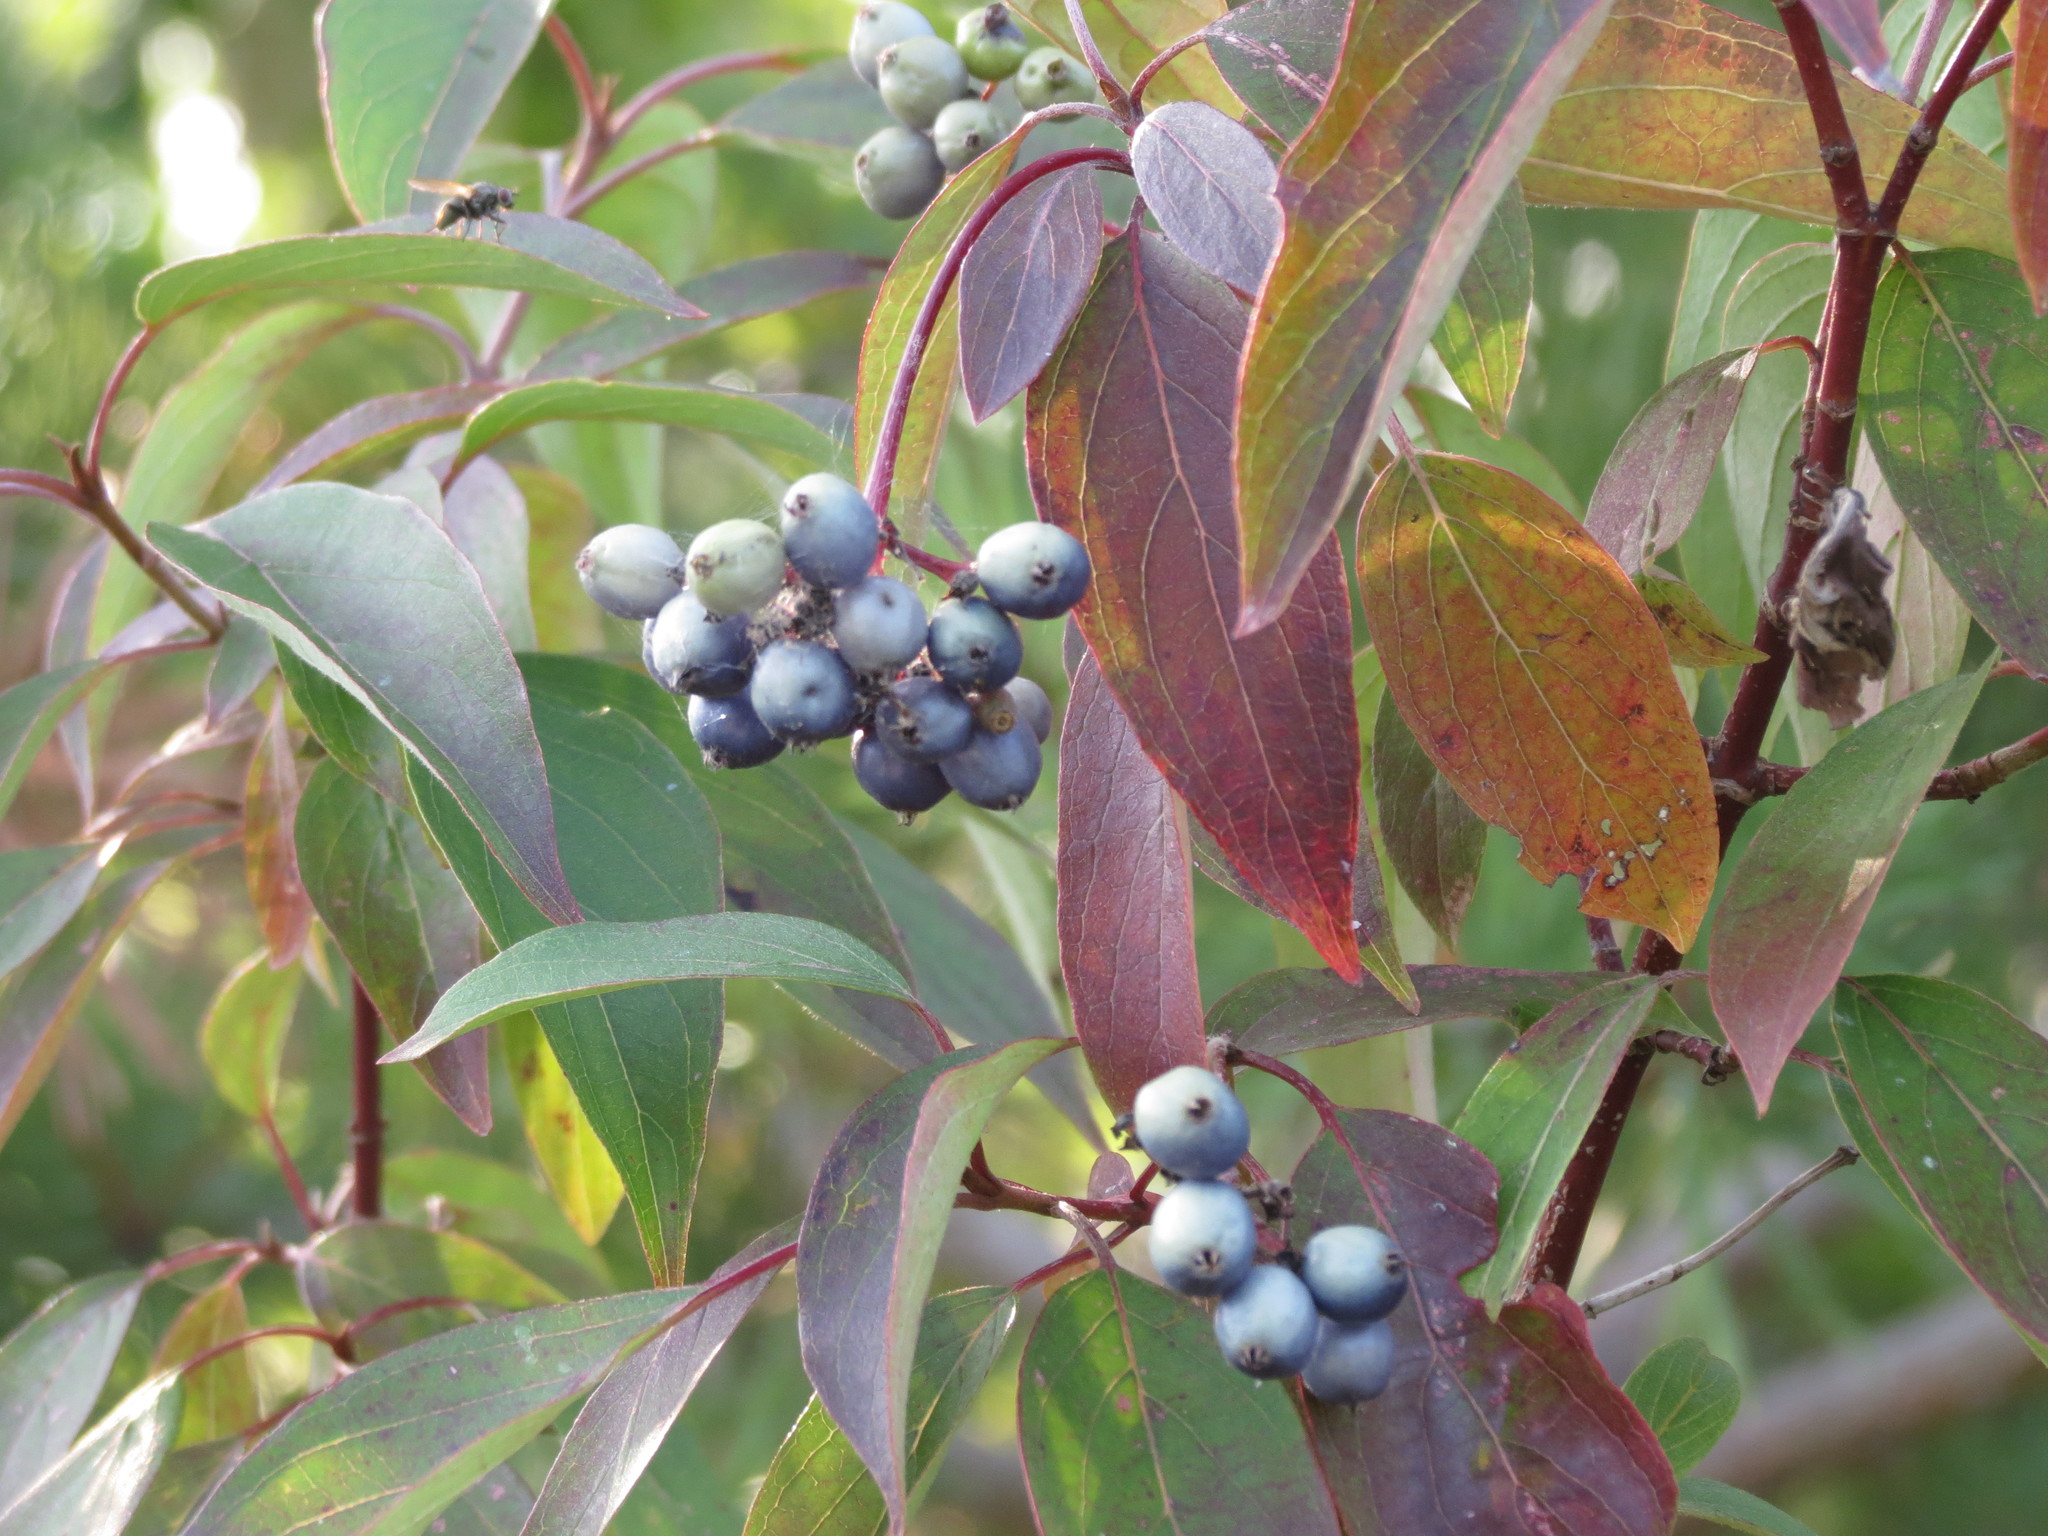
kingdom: Plantae
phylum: Tracheophyta
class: Magnoliopsida
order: Cornales
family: Cornaceae
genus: Cornus
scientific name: Cornus amomum
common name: Silky dogwood
